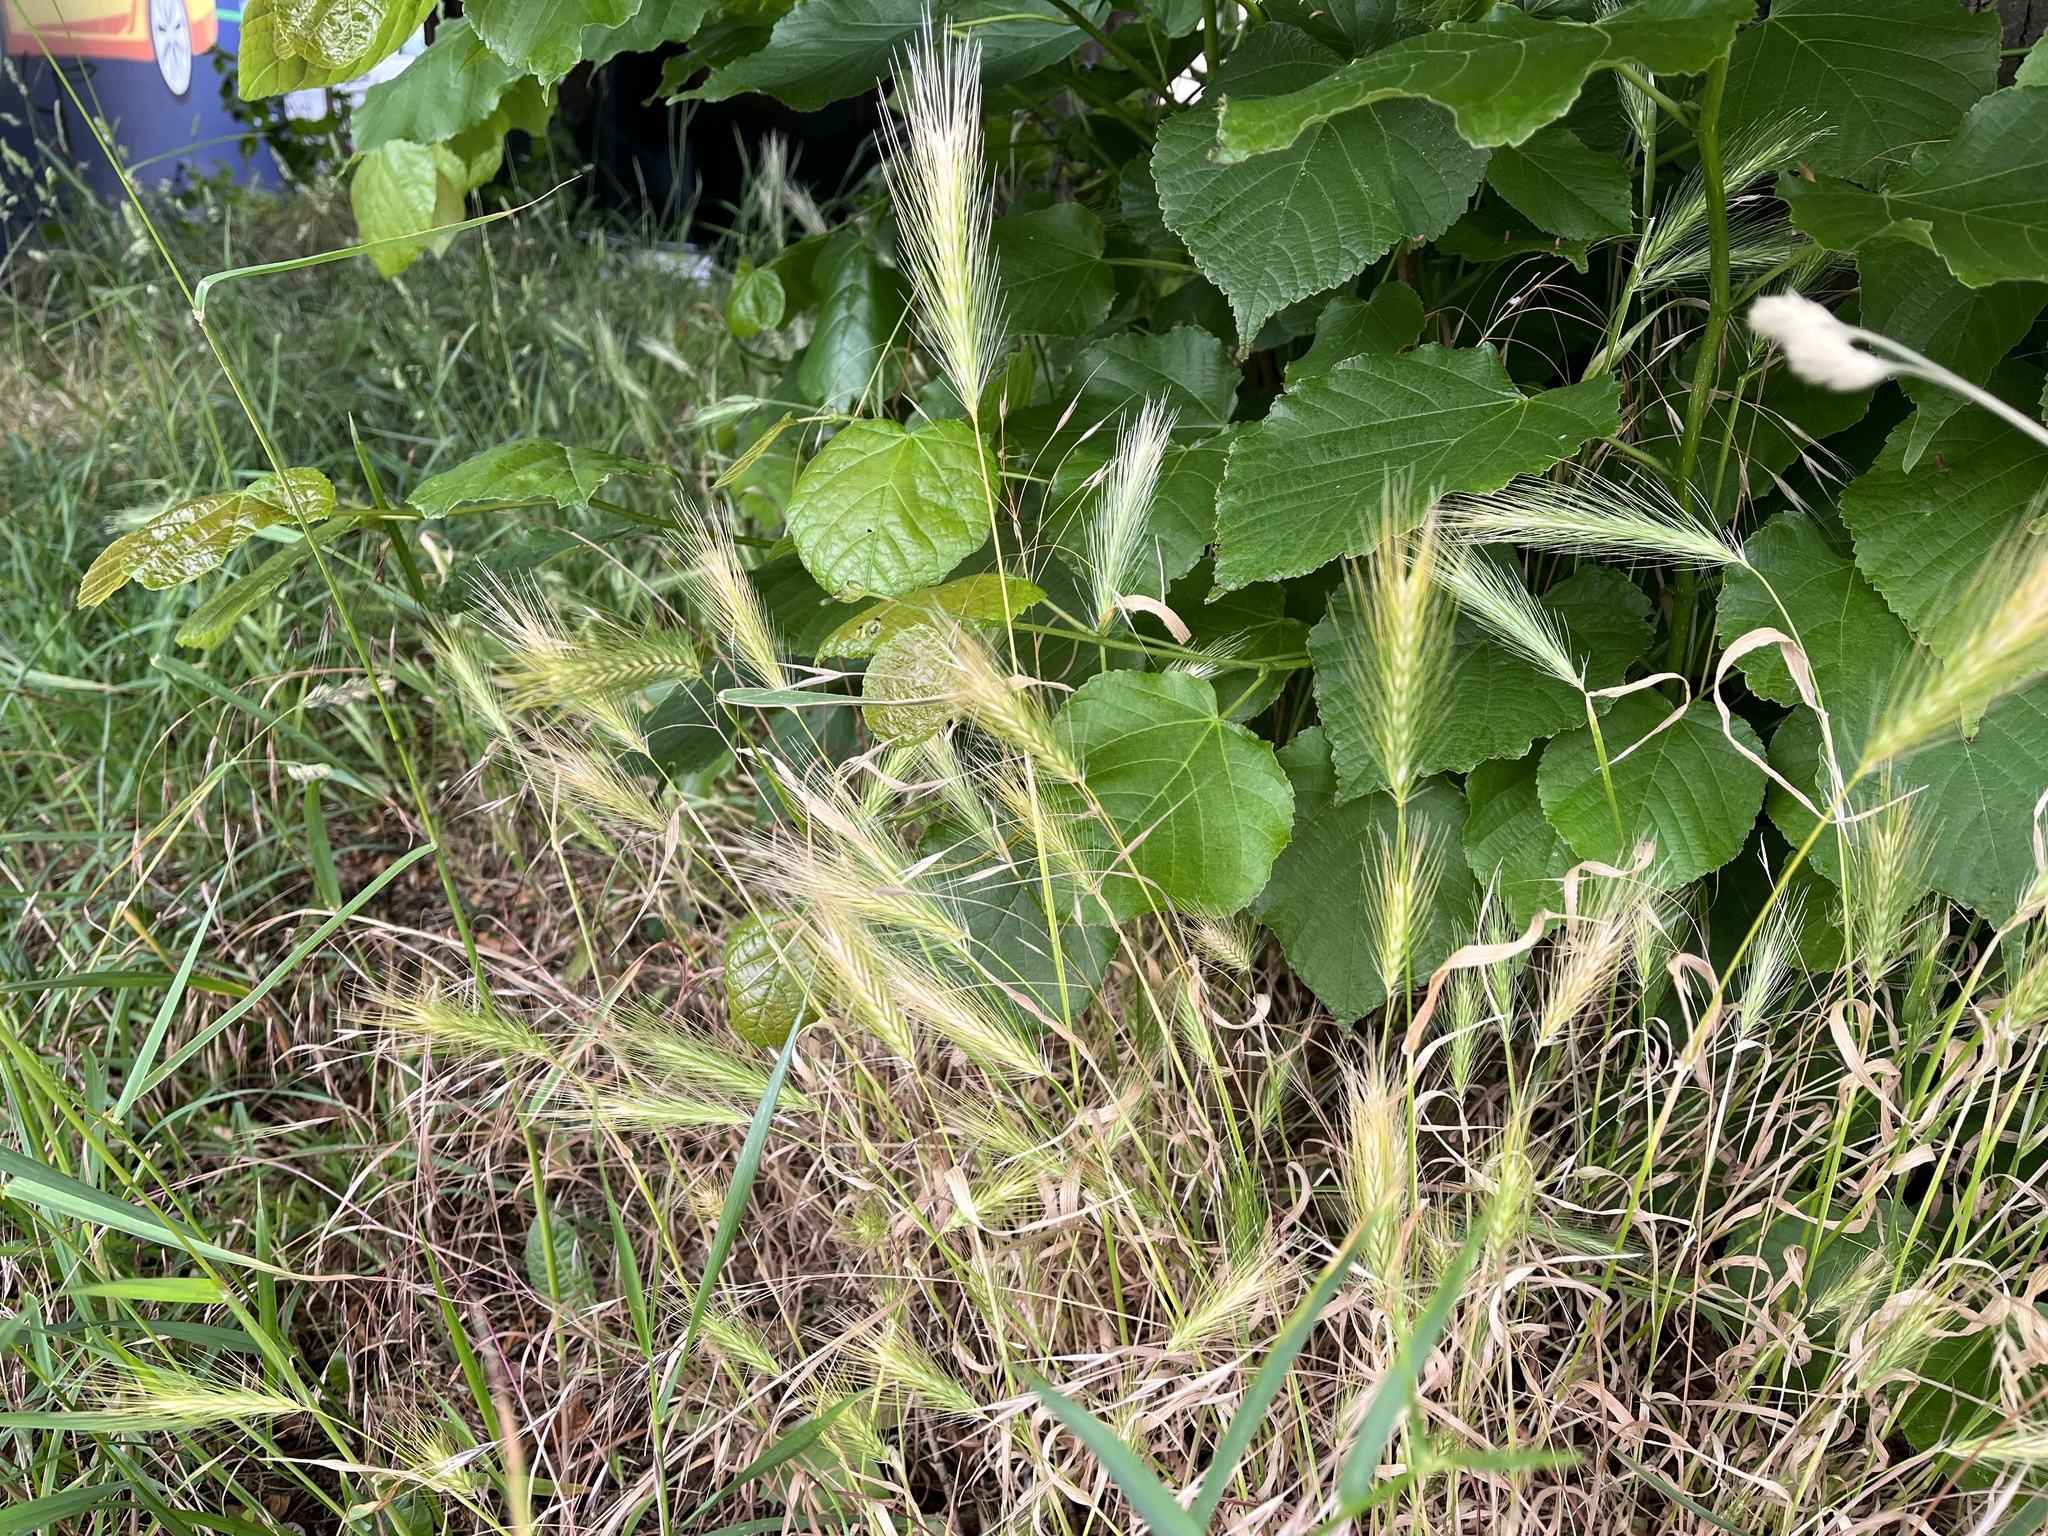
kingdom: Plantae
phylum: Tracheophyta
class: Liliopsida
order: Poales
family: Poaceae
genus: Hordeum
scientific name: Hordeum murinum
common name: Wall barley
